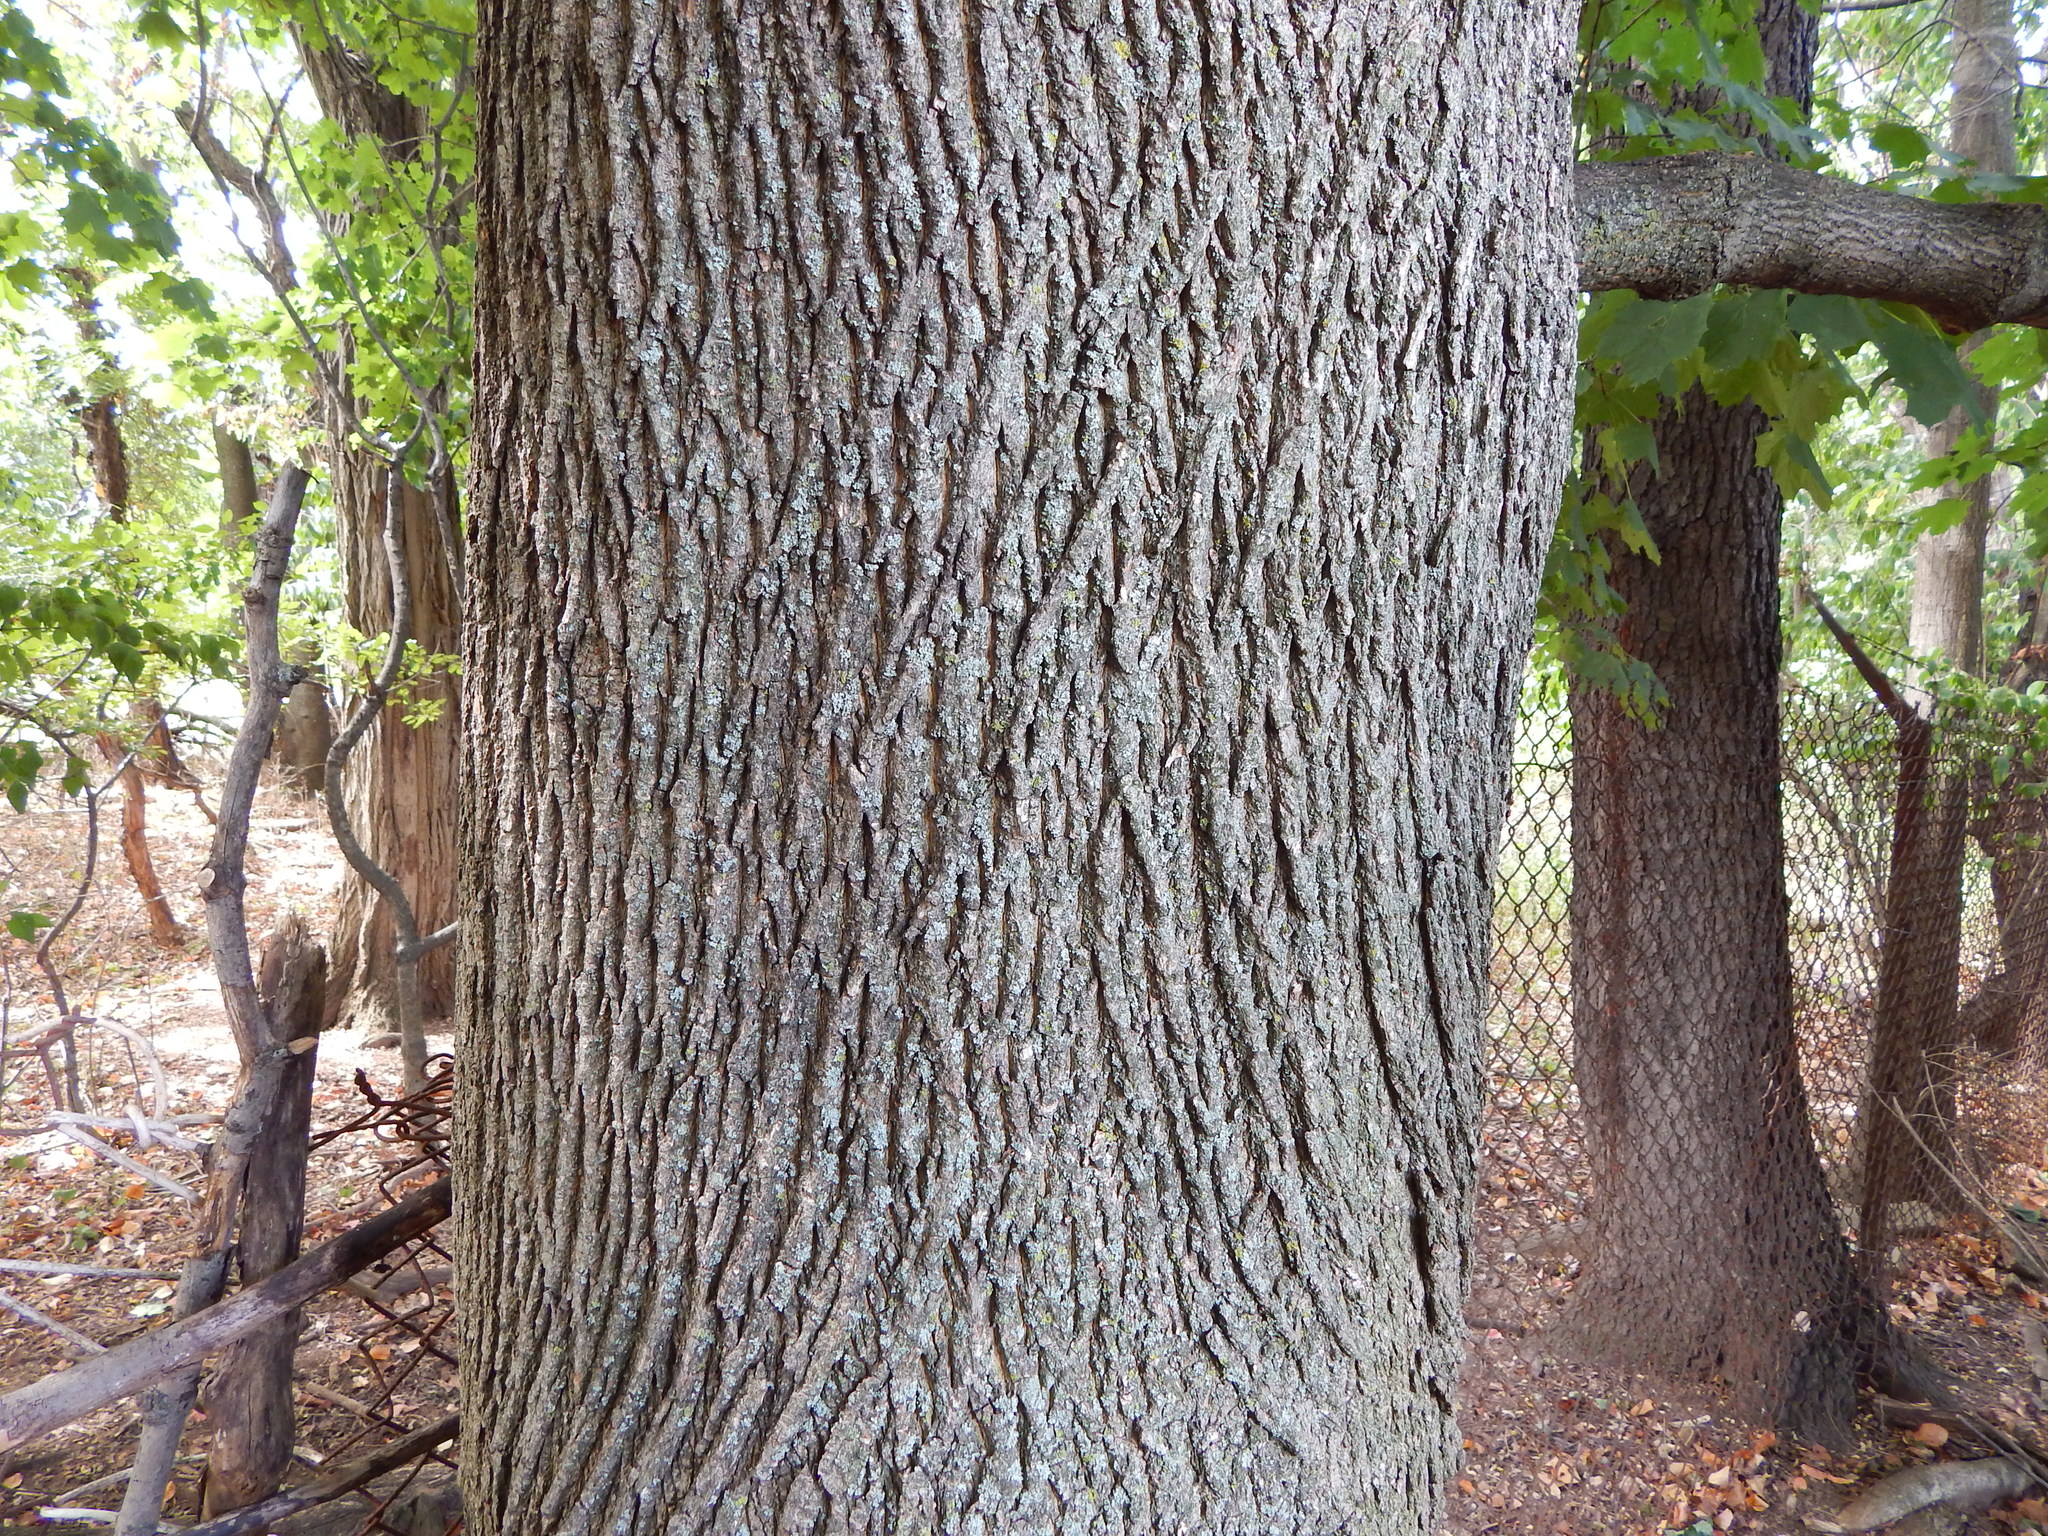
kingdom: Plantae
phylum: Tracheophyta
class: Magnoliopsida
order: Sapindales
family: Sapindaceae
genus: Acer
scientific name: Acer platanoides
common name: Norway maple
